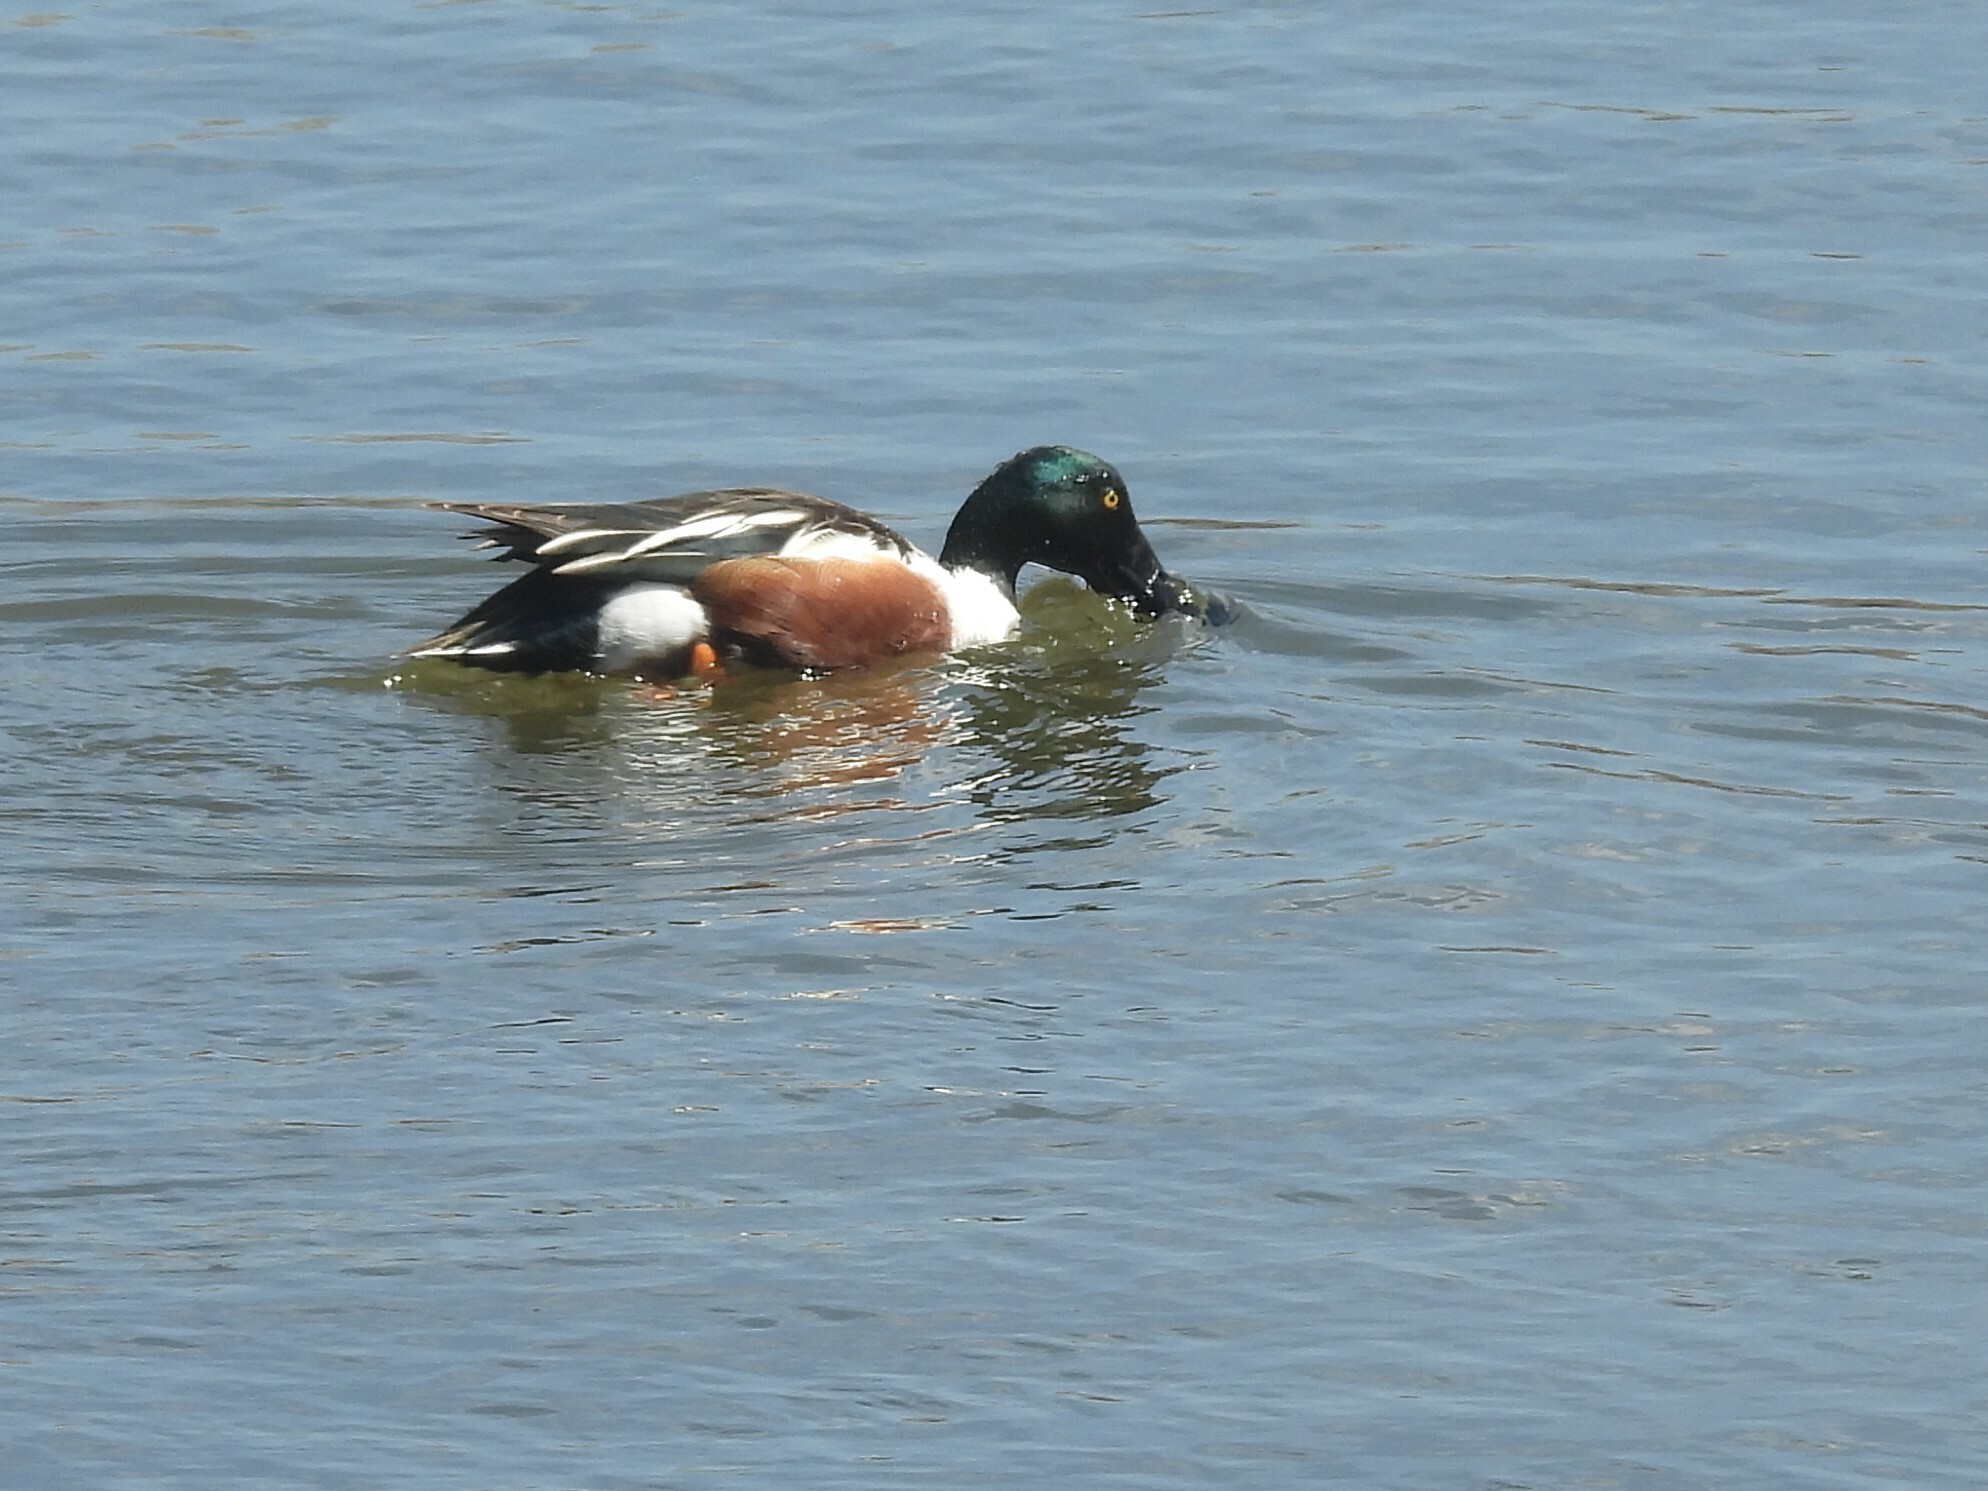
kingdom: Animalia
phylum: Chordata
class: Aves
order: Anseriformes
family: Anatidae
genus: Spatula
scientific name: Spatula clypeata
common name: Northern shoveler
